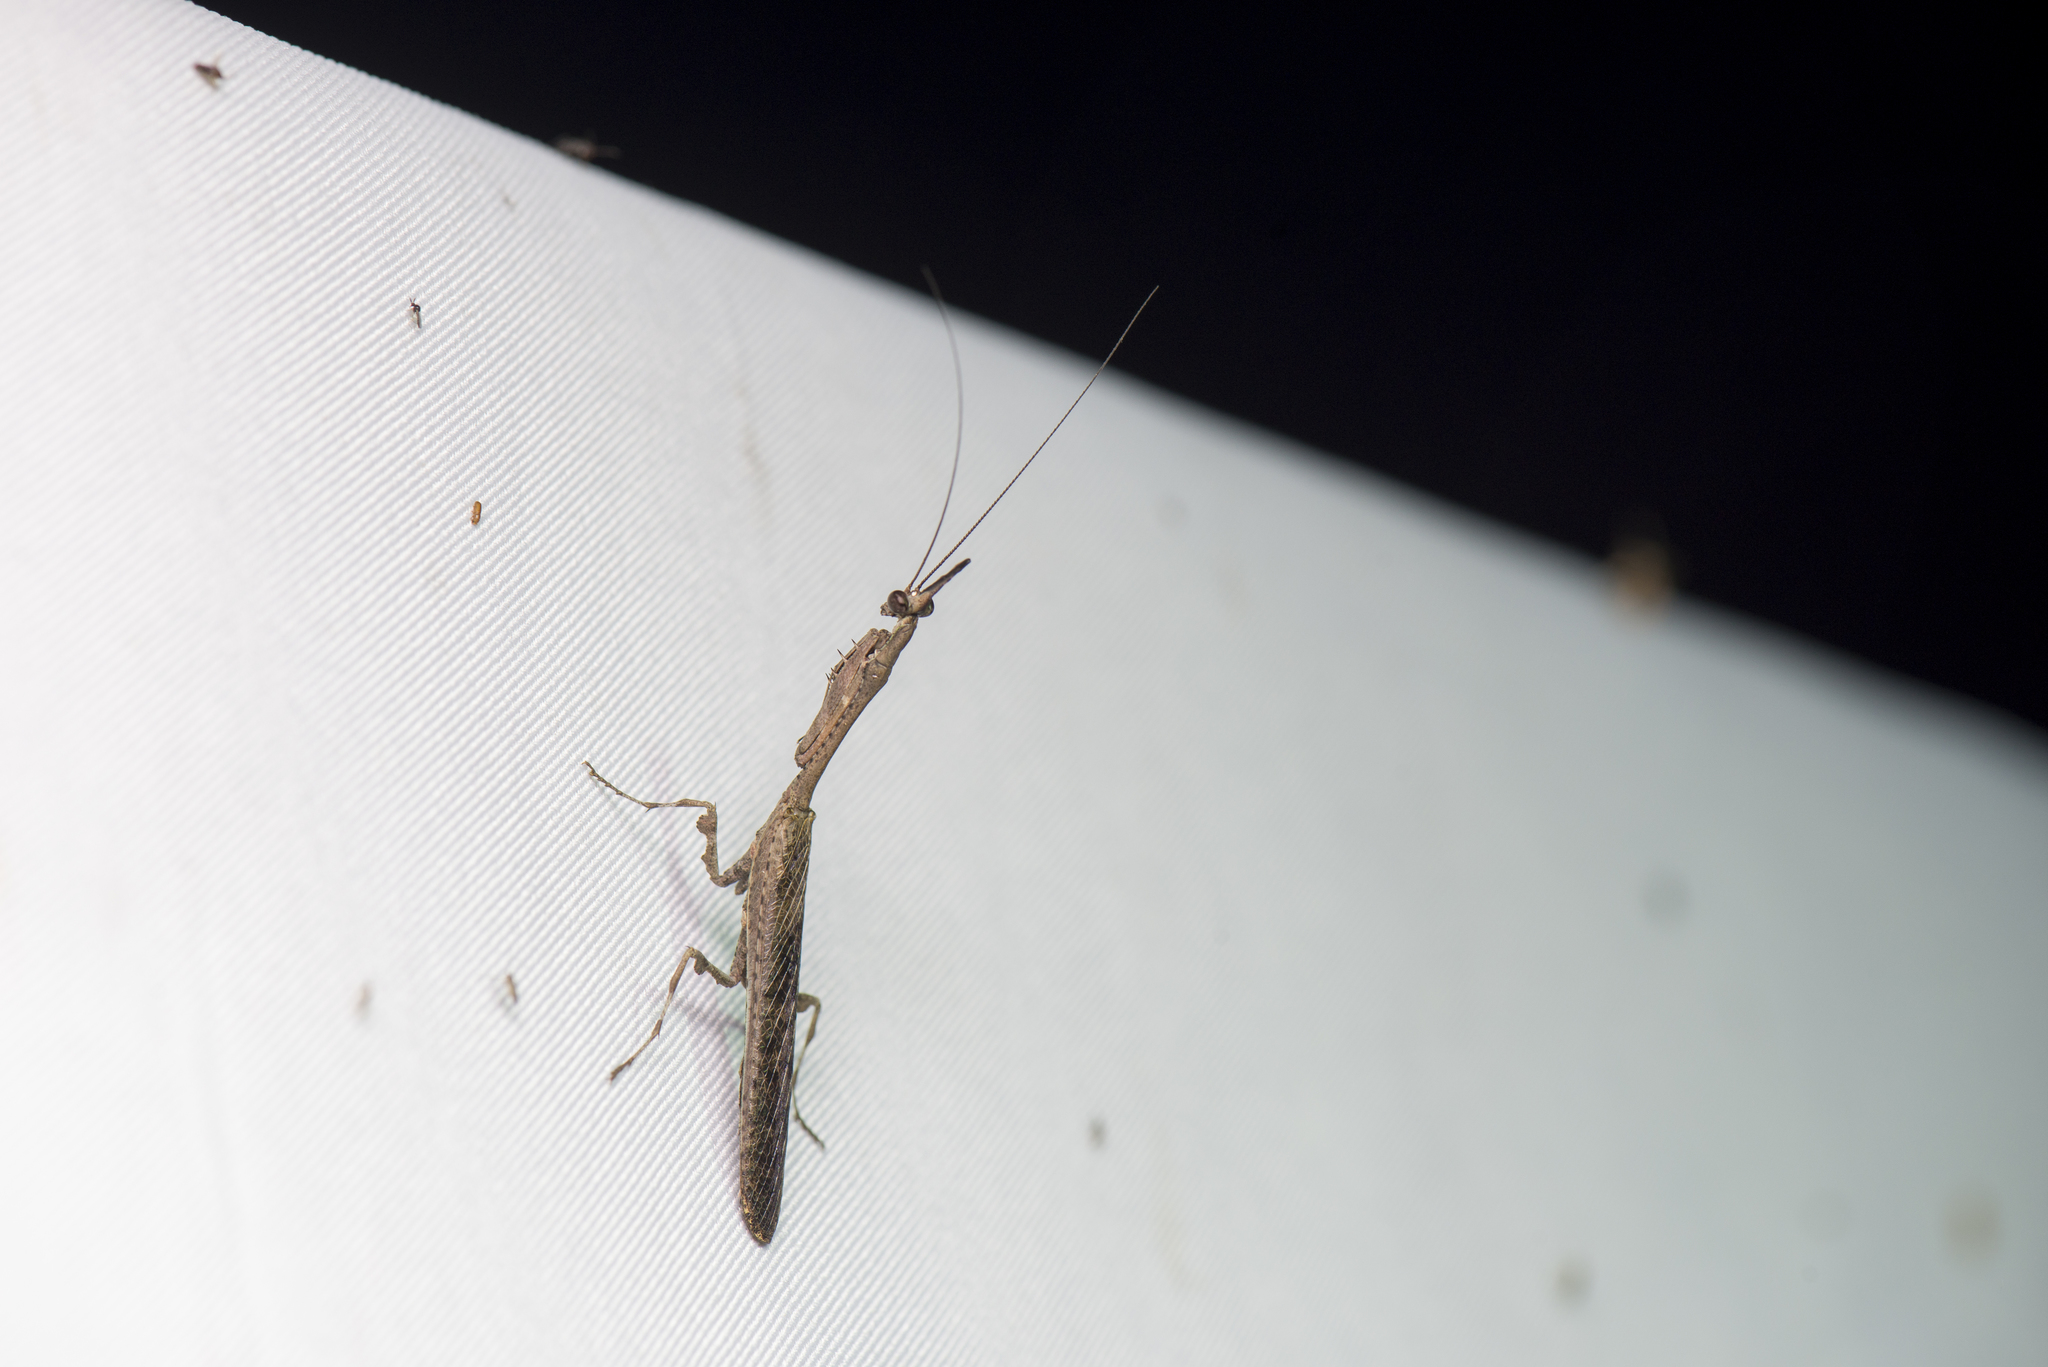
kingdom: Animalia
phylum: Arthropoda
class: Insecta
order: Mantodea
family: Hymenopodidae
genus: Phyllothelys
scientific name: Phyllothelys werneri
